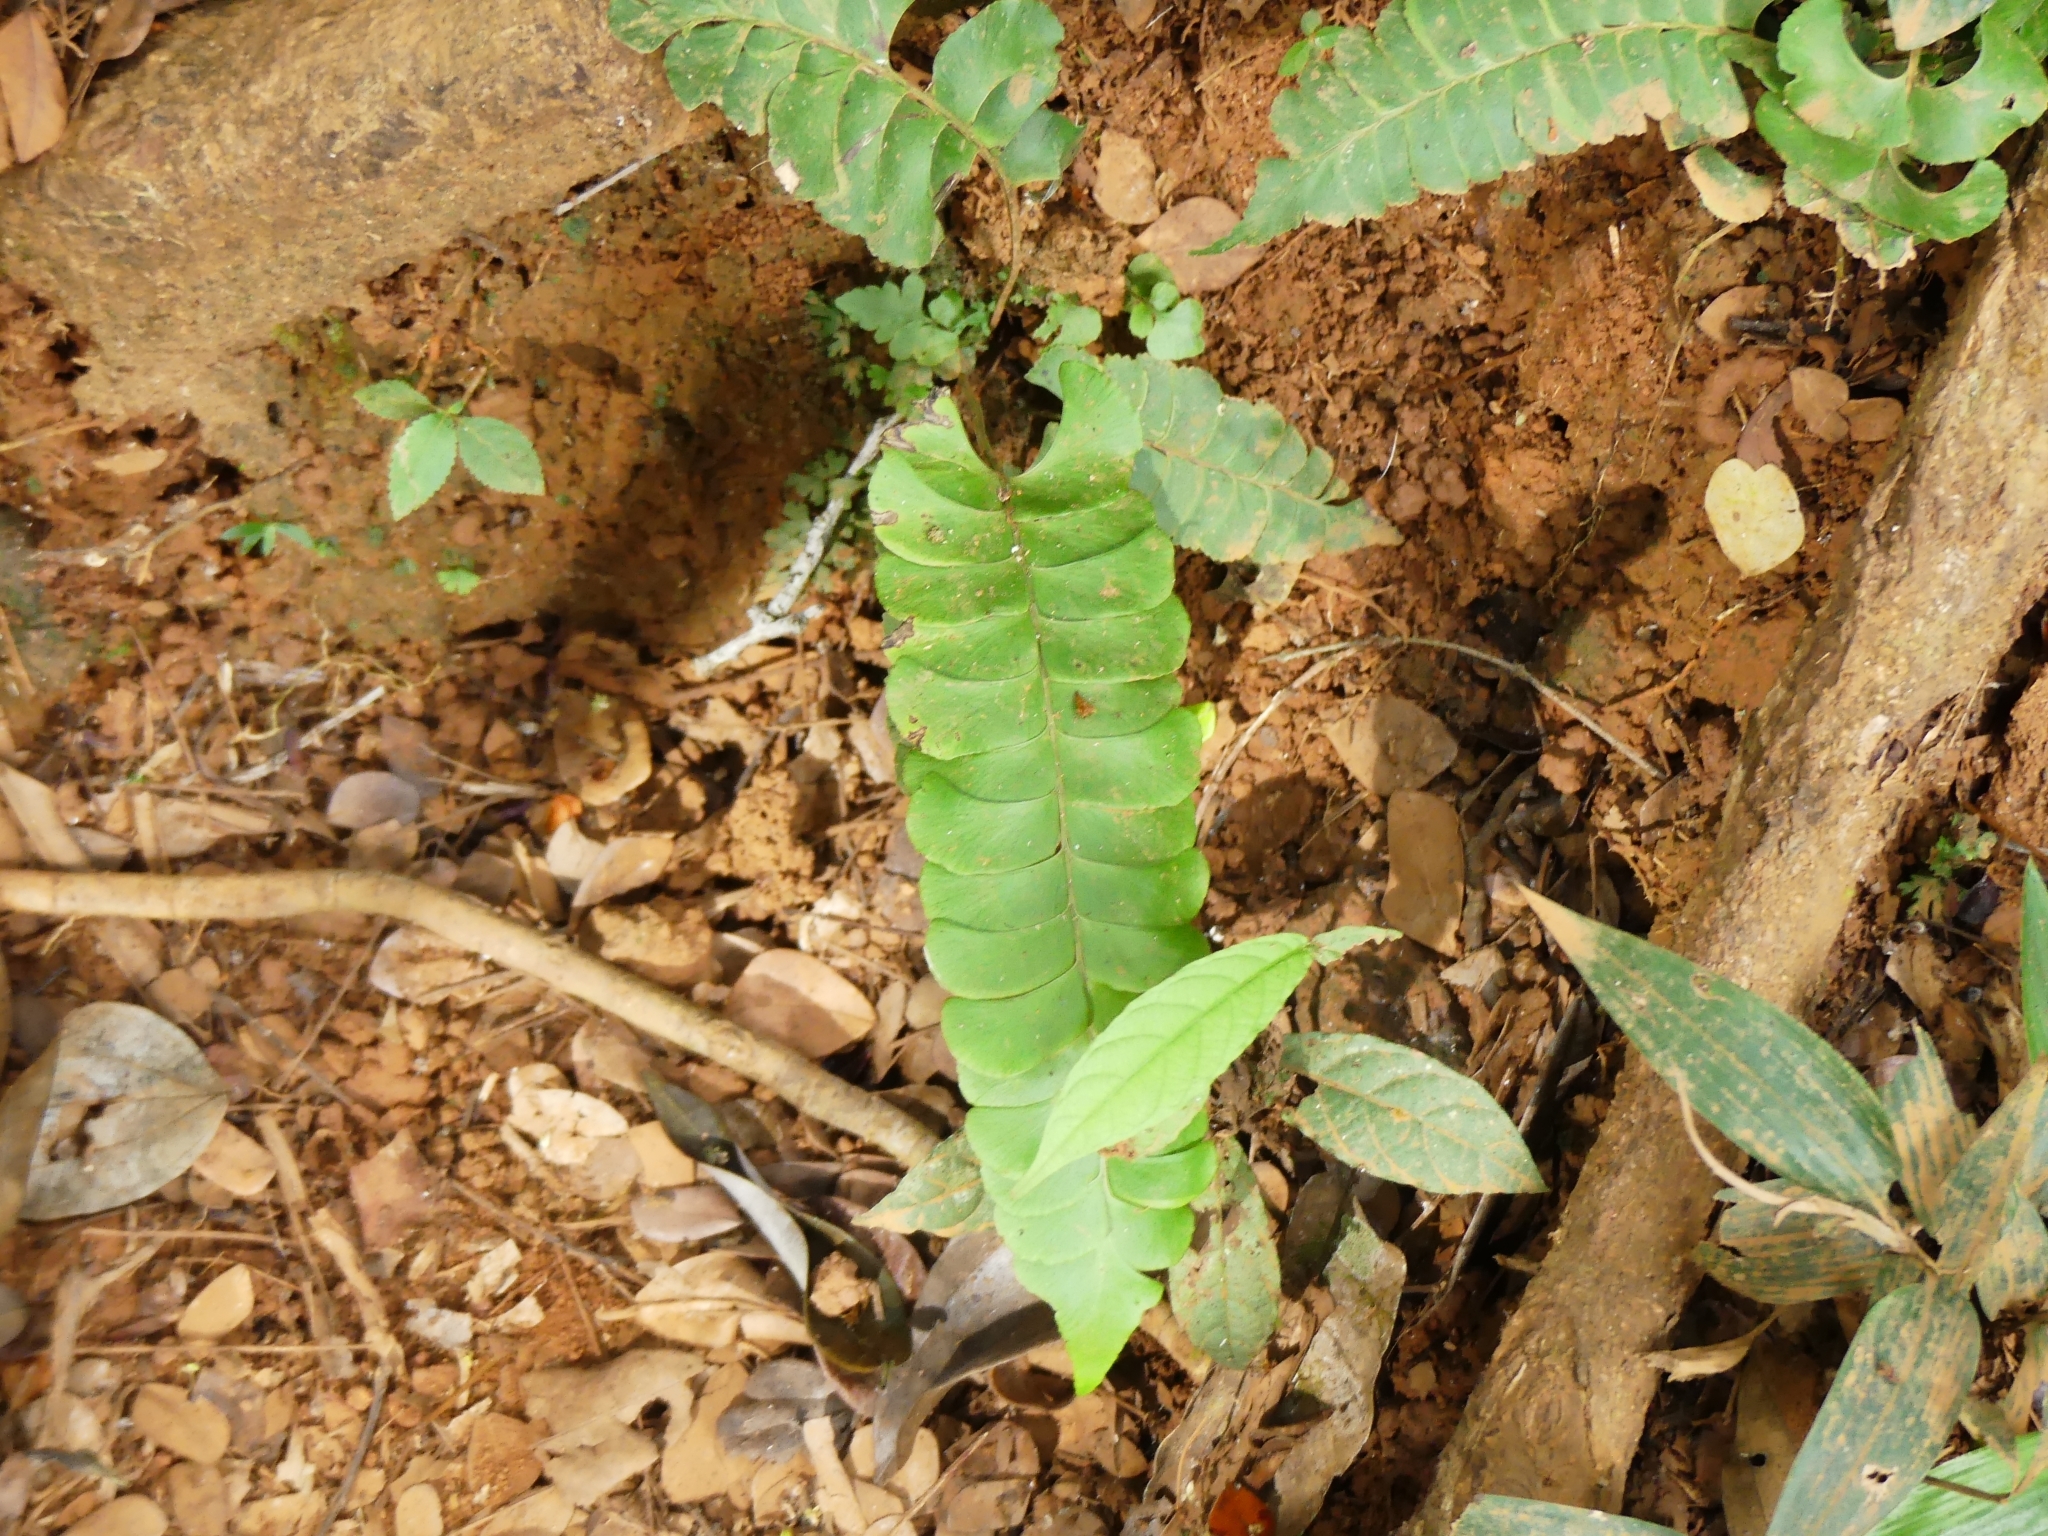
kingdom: Plantae
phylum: Tracheophyta
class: Polypodiopsida
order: Polypodiales
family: Lindsaeaceae
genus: Lindsaea
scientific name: Lindsaea lancea
